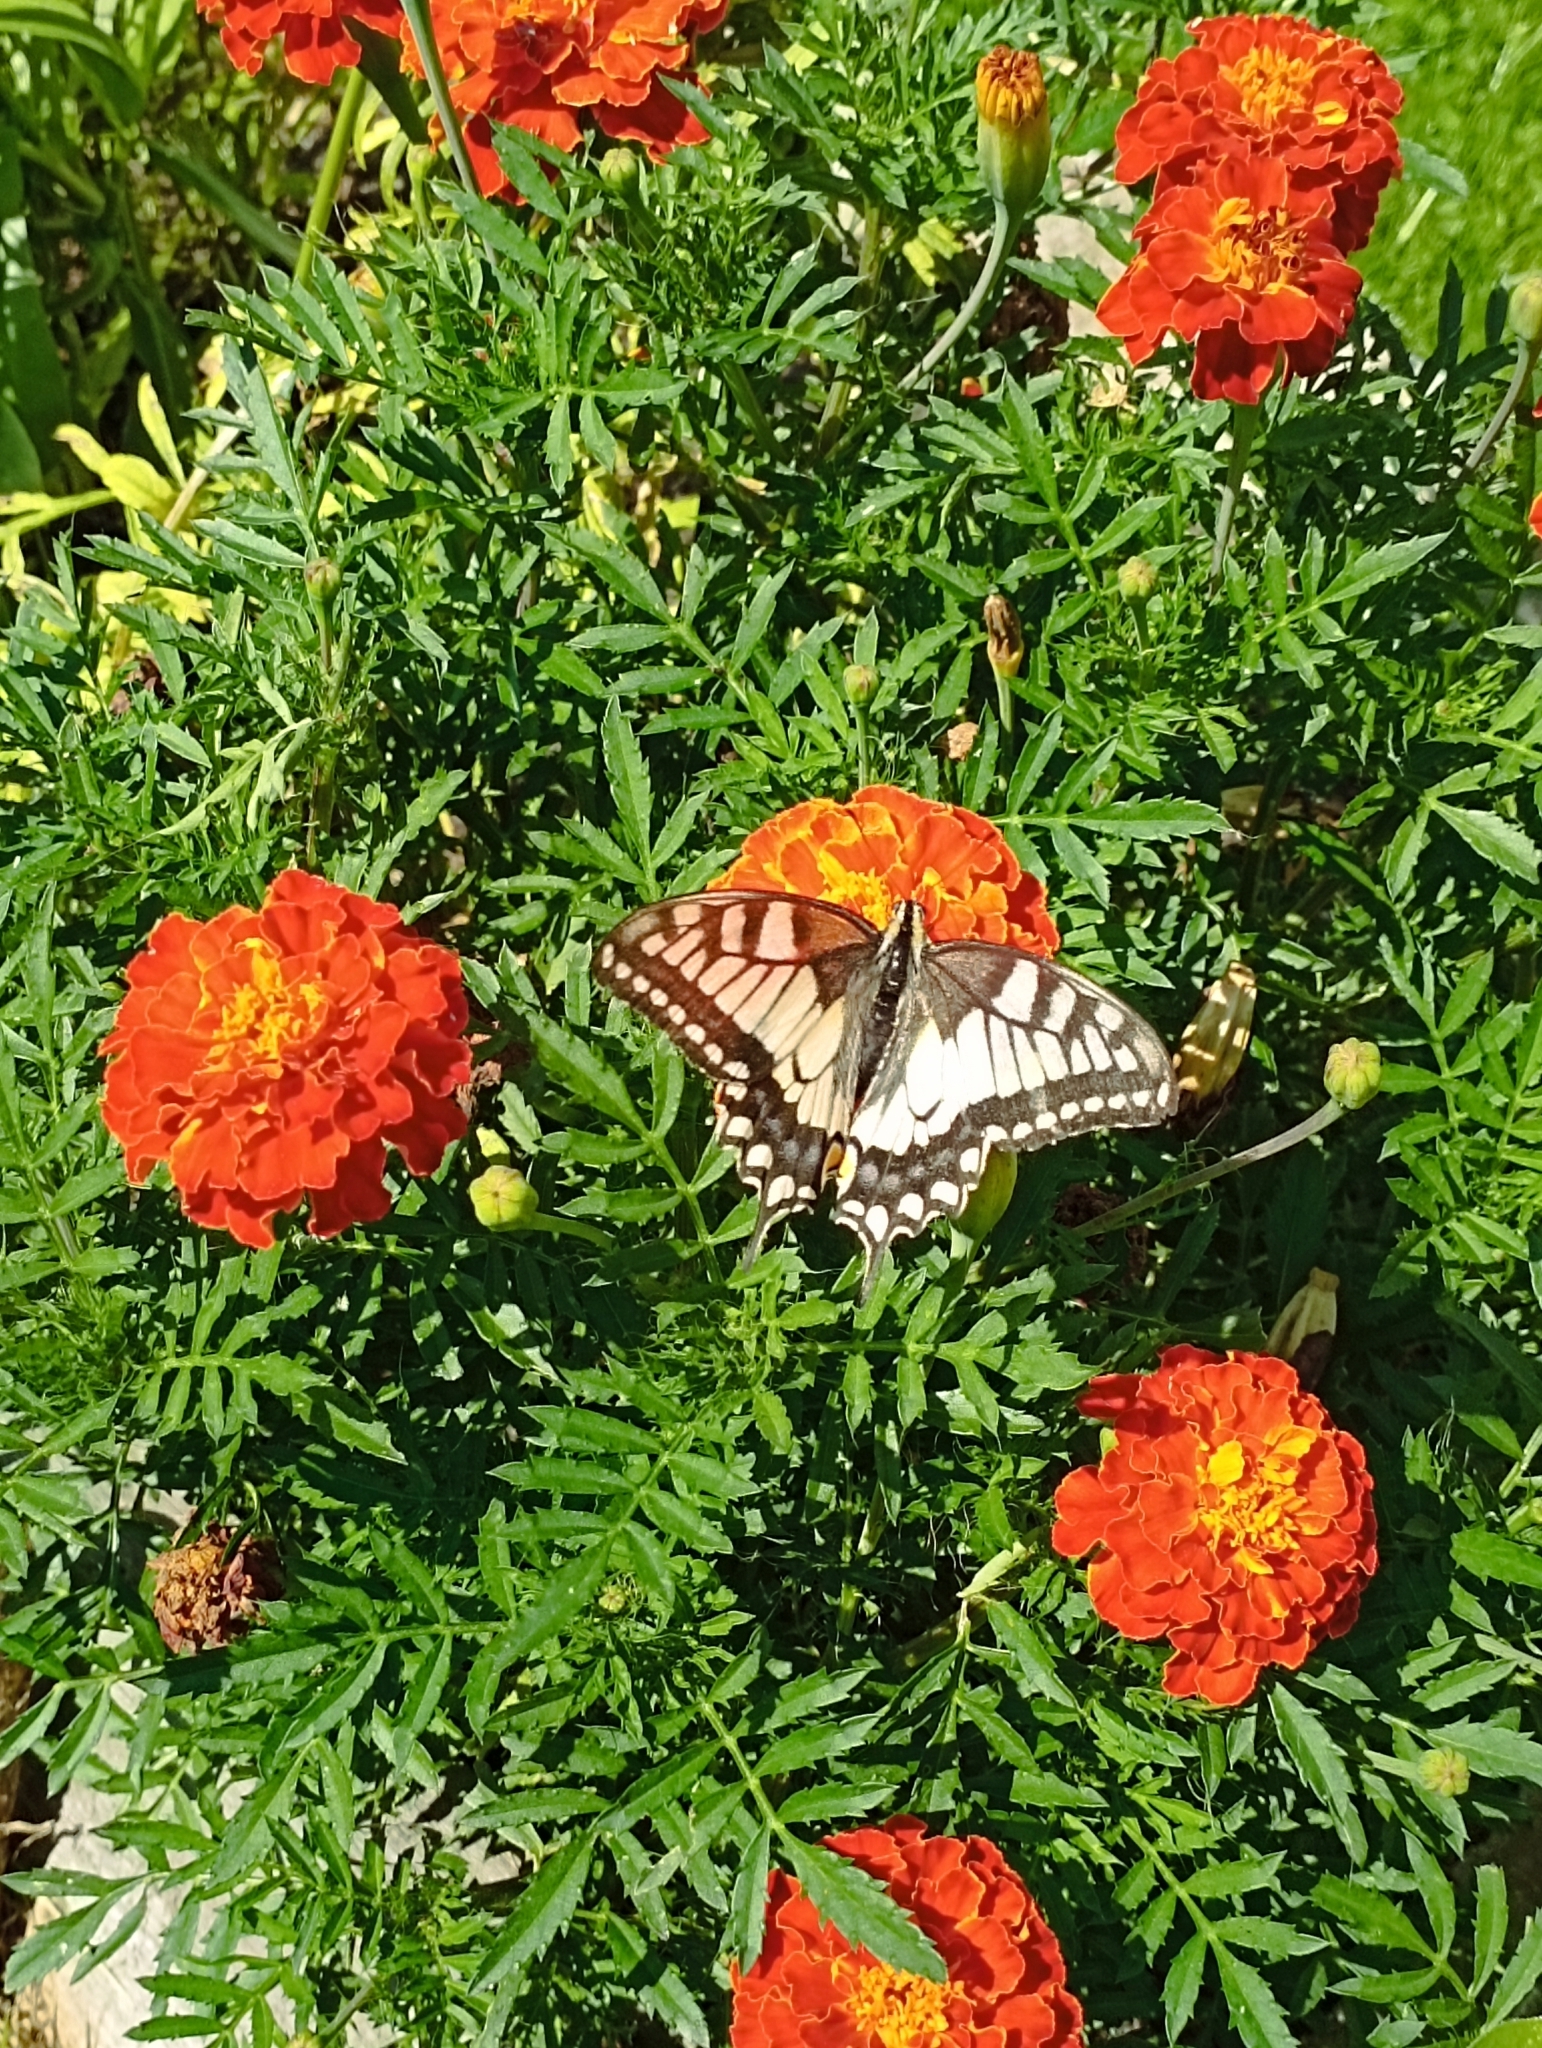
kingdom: Animalia
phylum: Arthropoda
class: Insecta
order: Lepidoptera
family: Papilionidae
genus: Papilio
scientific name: Papilio machaon
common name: Swallowtail
